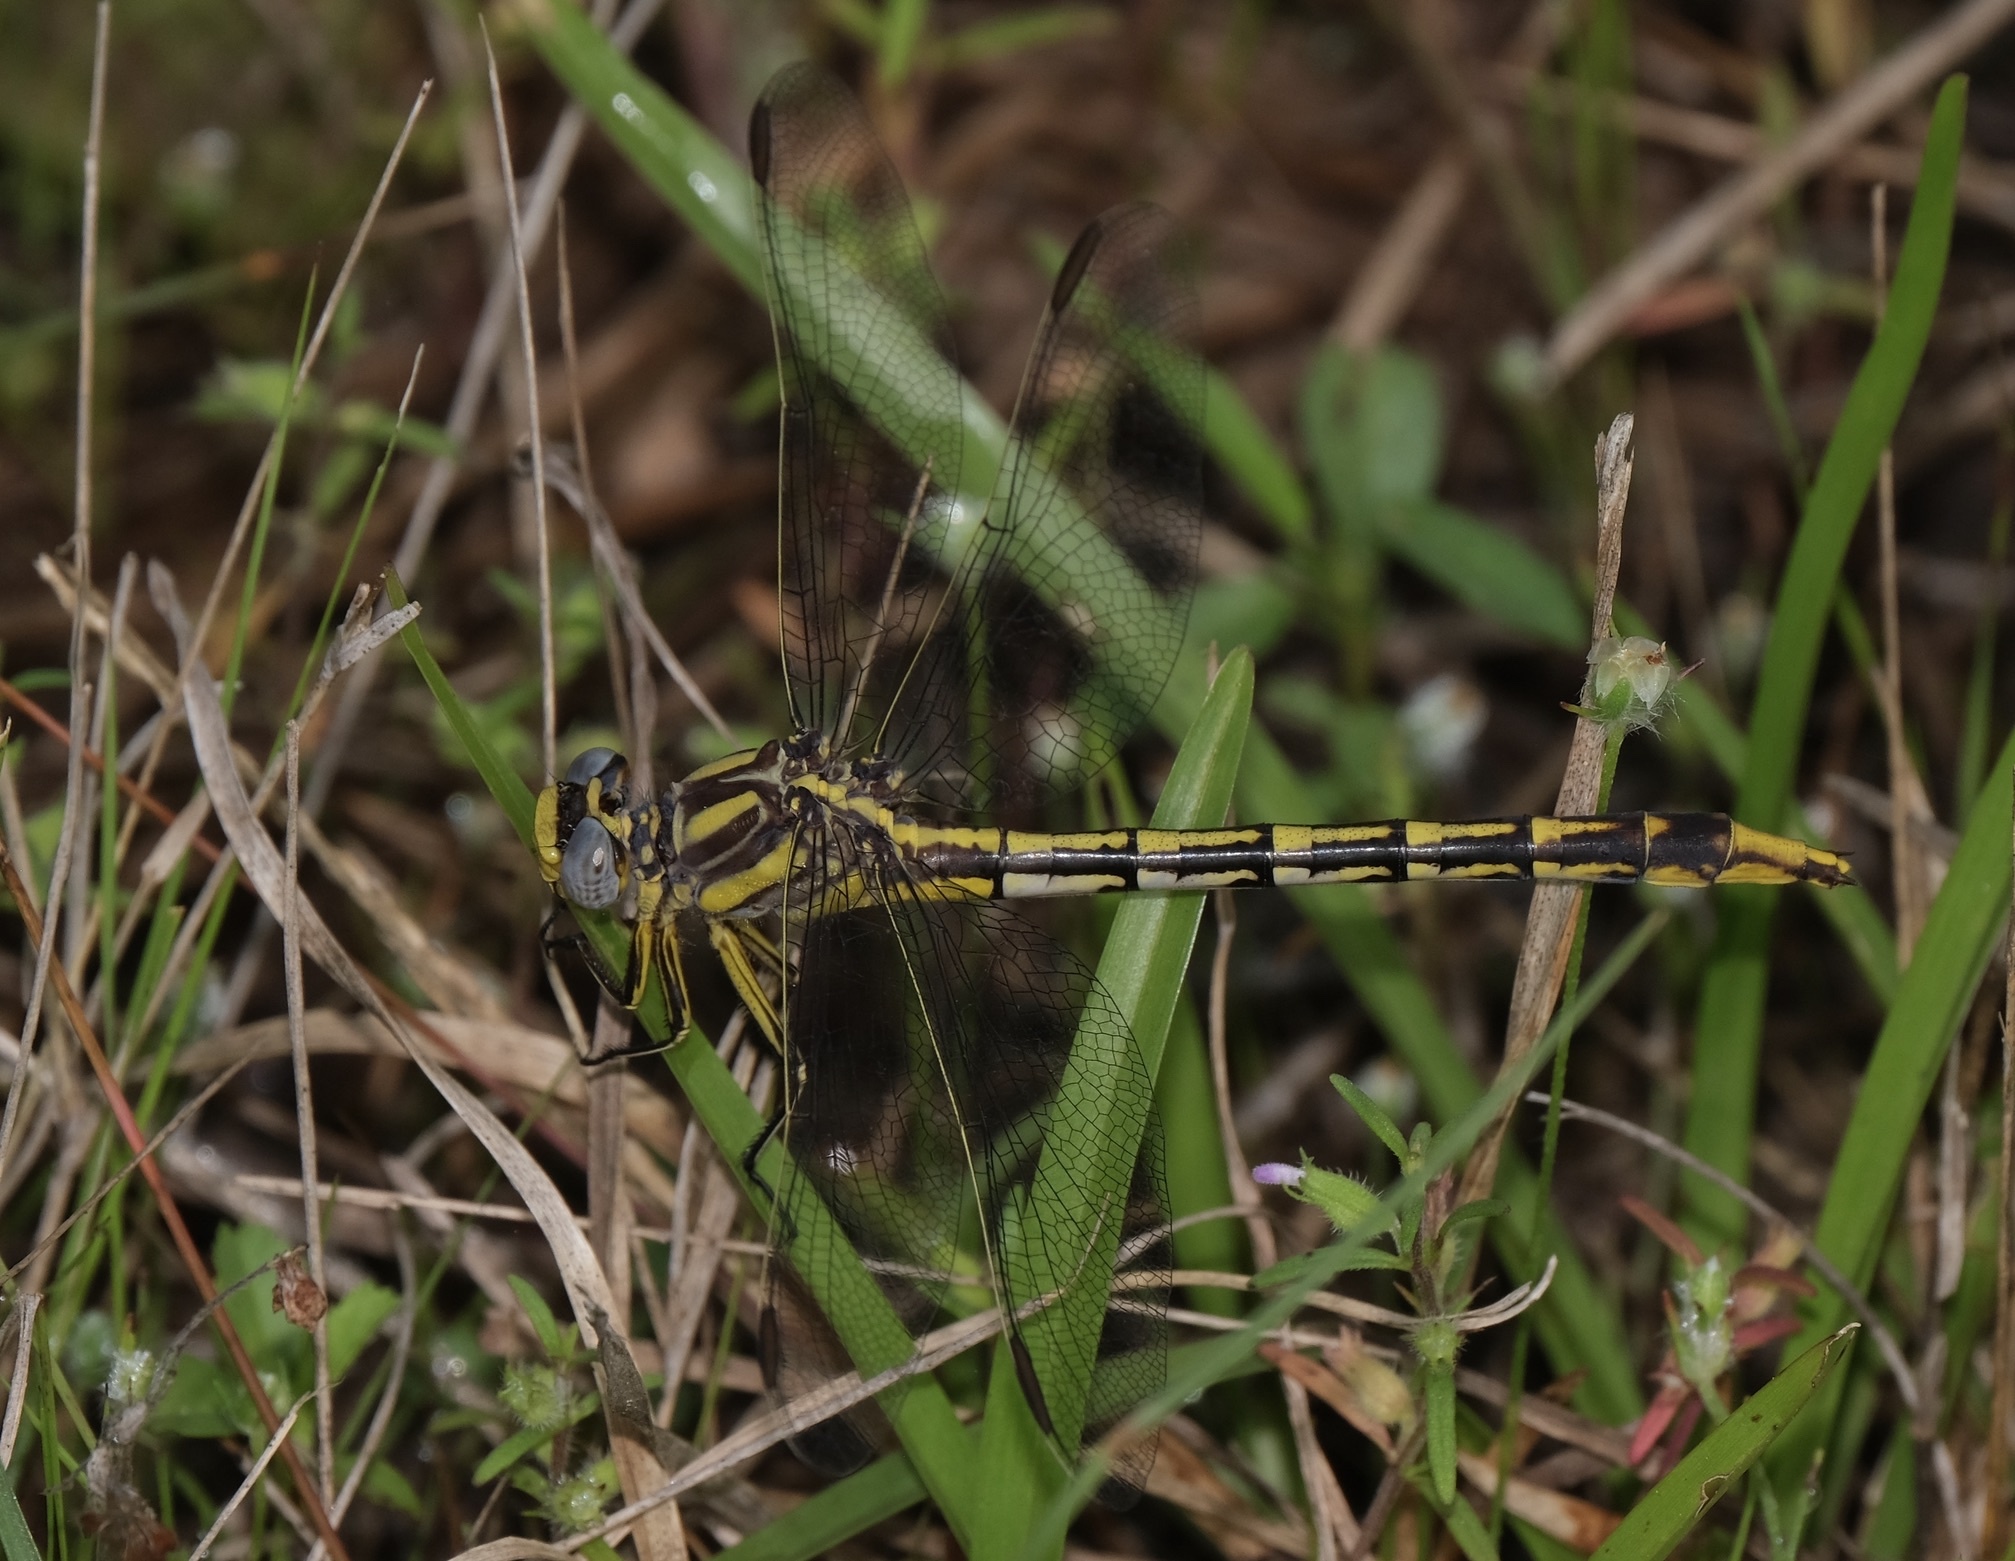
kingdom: Animalia
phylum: Arthropoda
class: Insecta
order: Odonata
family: Gomphidae
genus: Phanogomphus
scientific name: Phanogomphus militaris
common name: Sulphur-tipped clubtail
